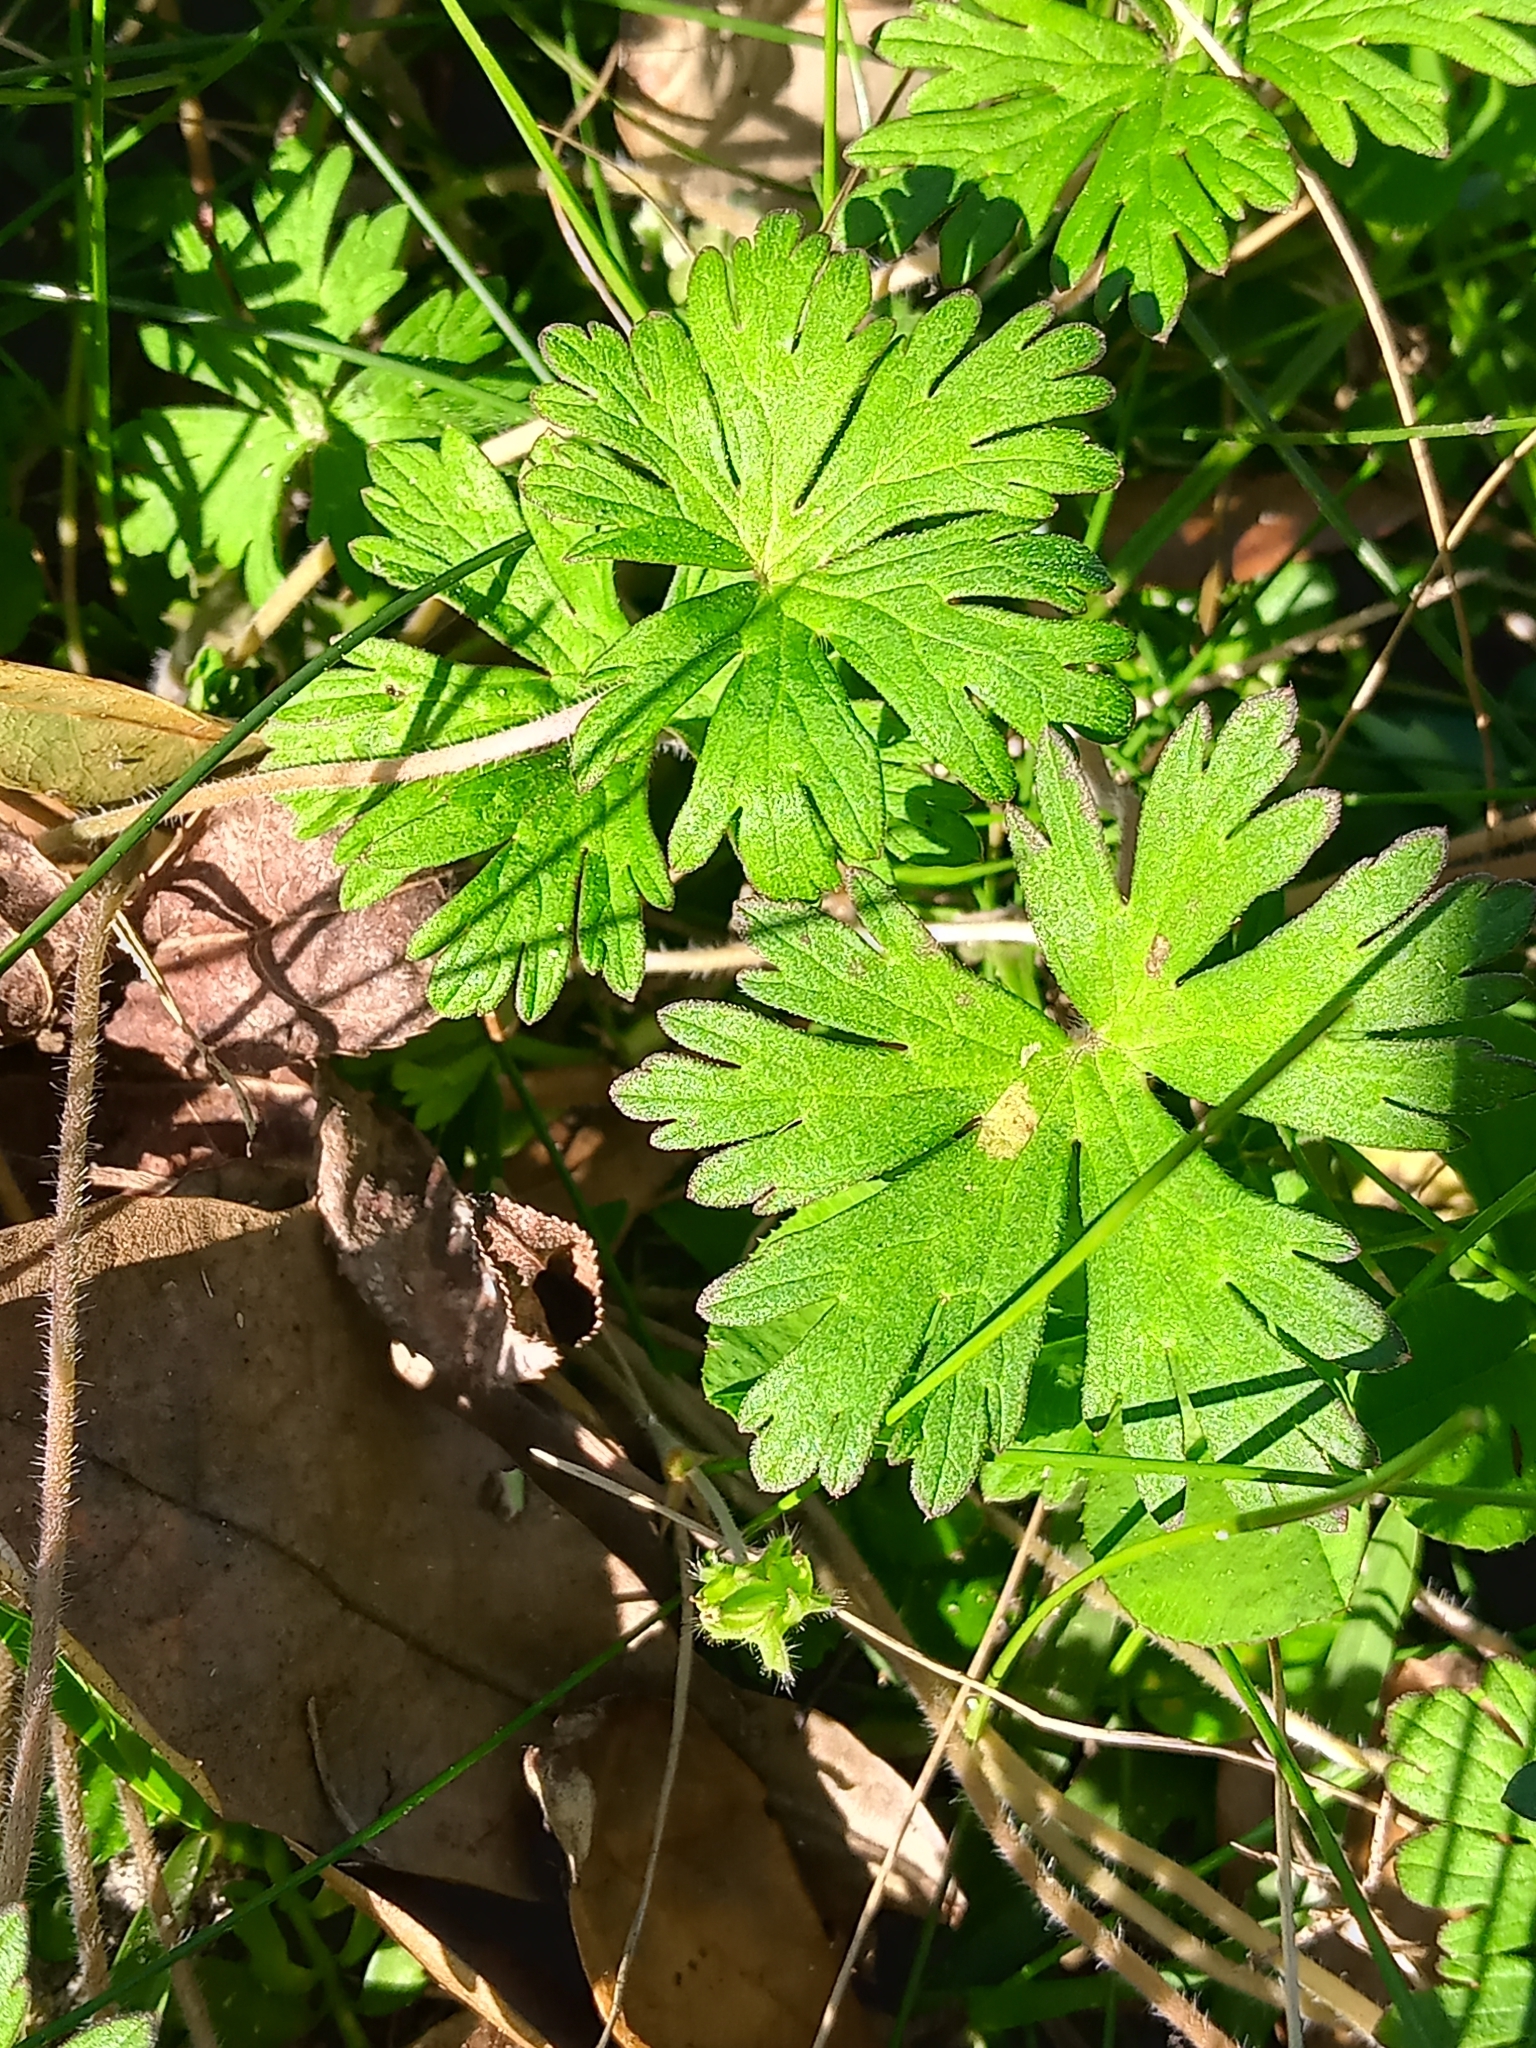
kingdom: Plantae
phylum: Tracheophyta
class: Magnoliopsida
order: Geraniales
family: Geraniaceae
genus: Geranium
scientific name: Geranium carolinianum
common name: Carolina crane's-bill
